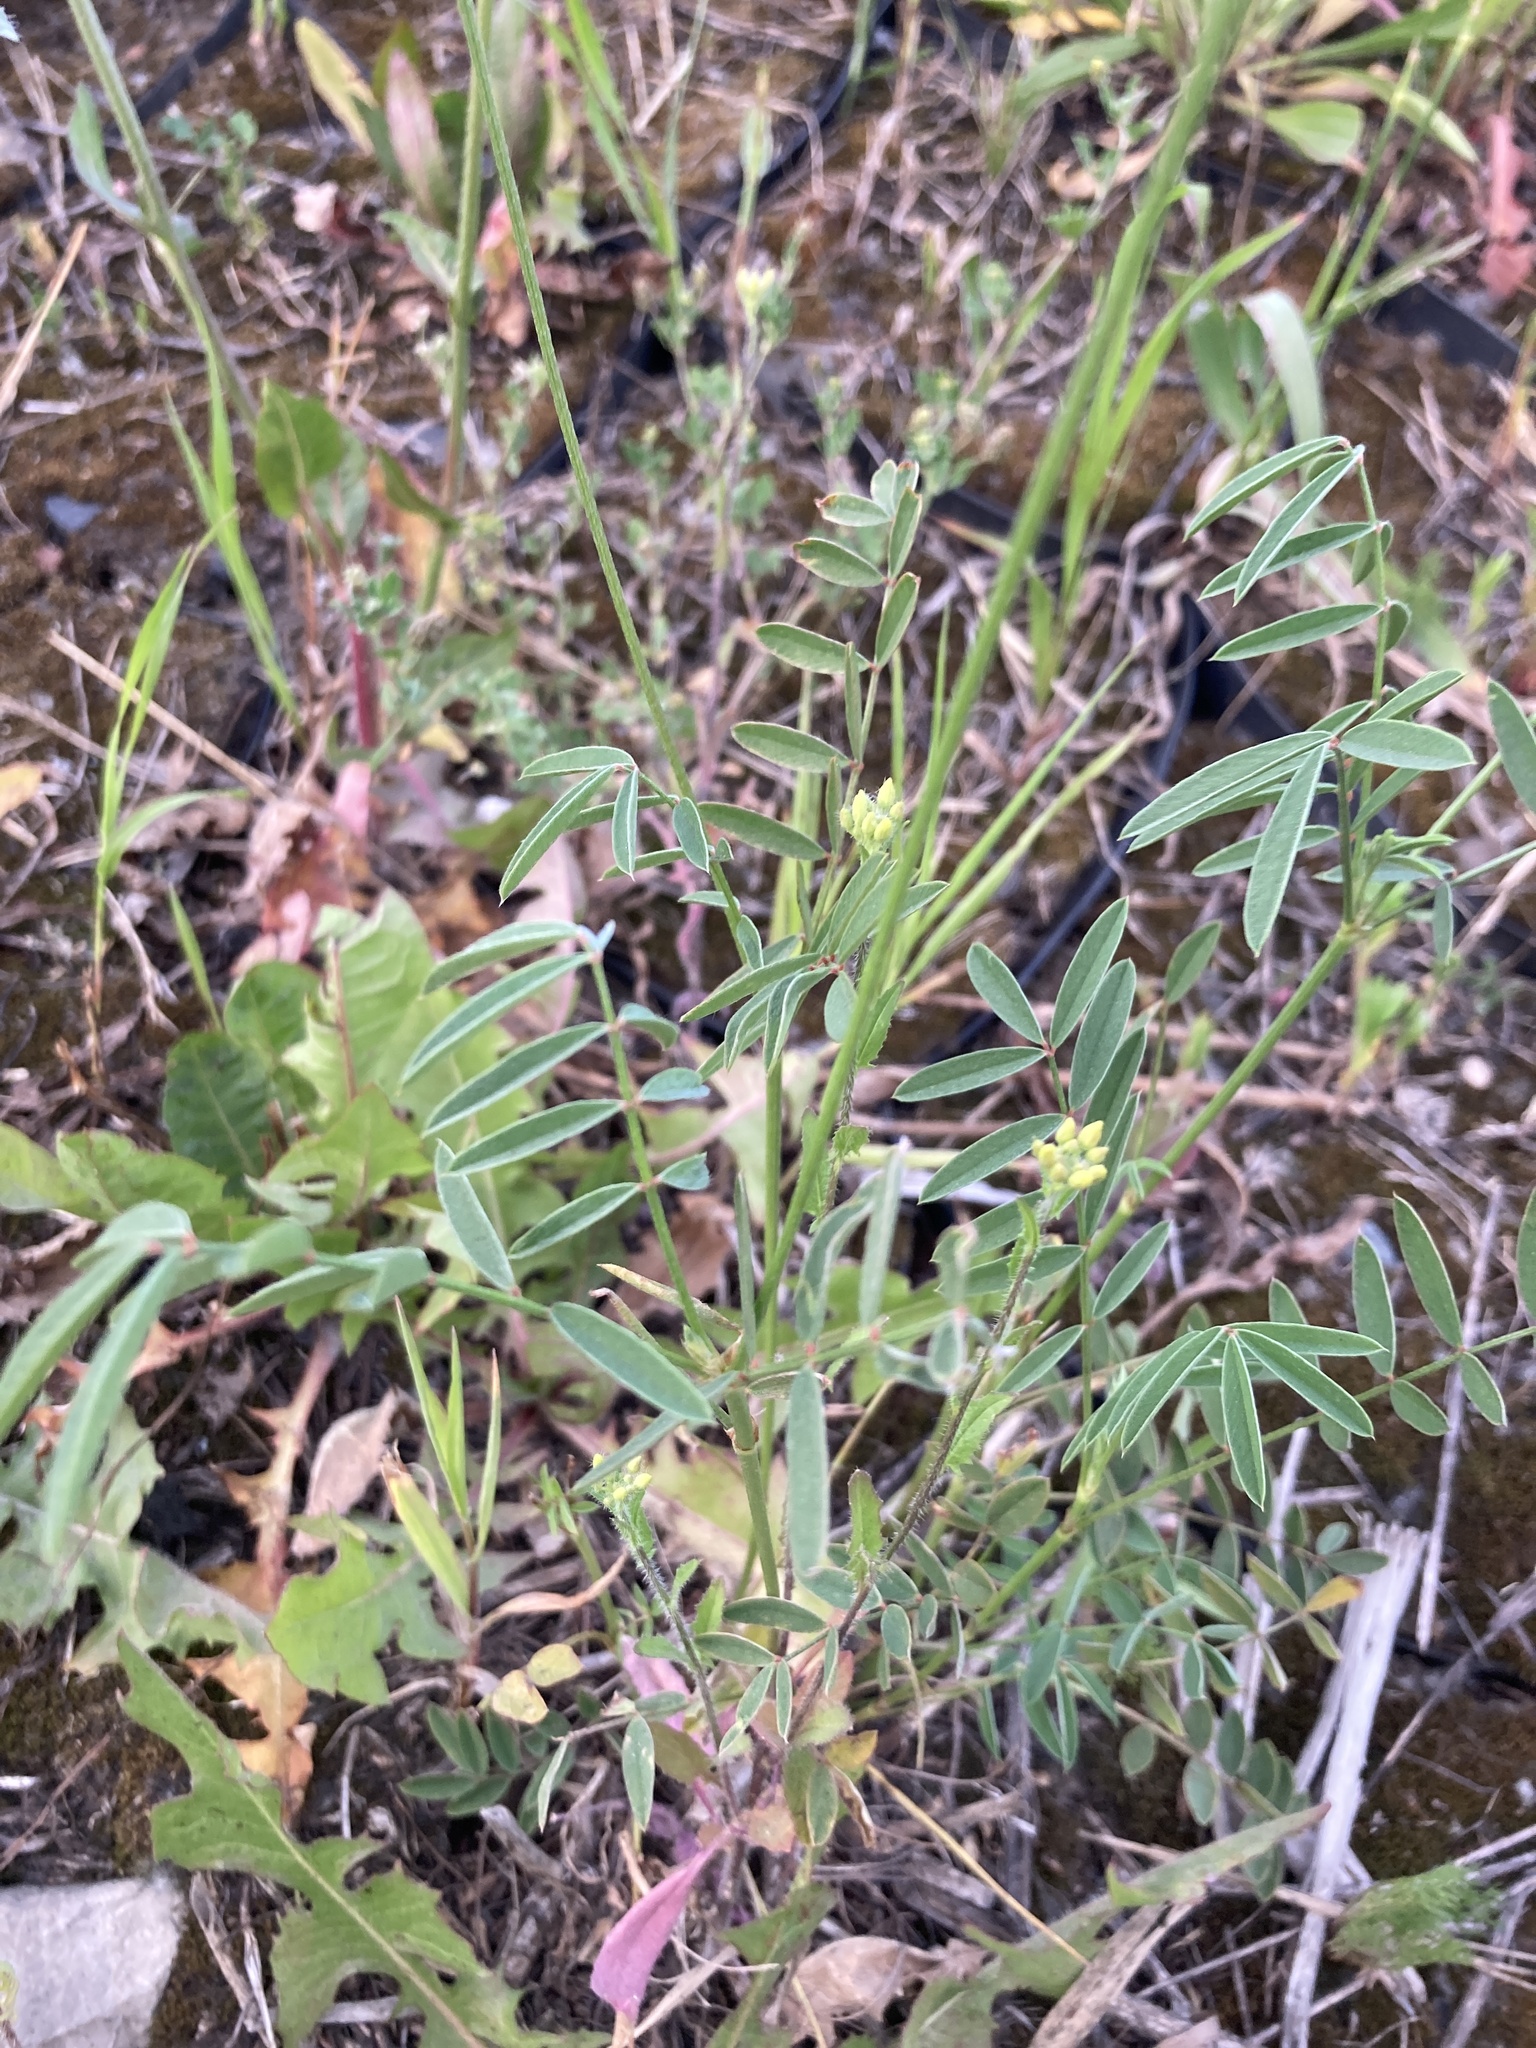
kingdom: Plantae
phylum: Tracheophyta
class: Magnoliopsida
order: Fabales
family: Fabaceae
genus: Onobrychis
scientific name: Onobrychis viciifolia
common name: Sainfoin
